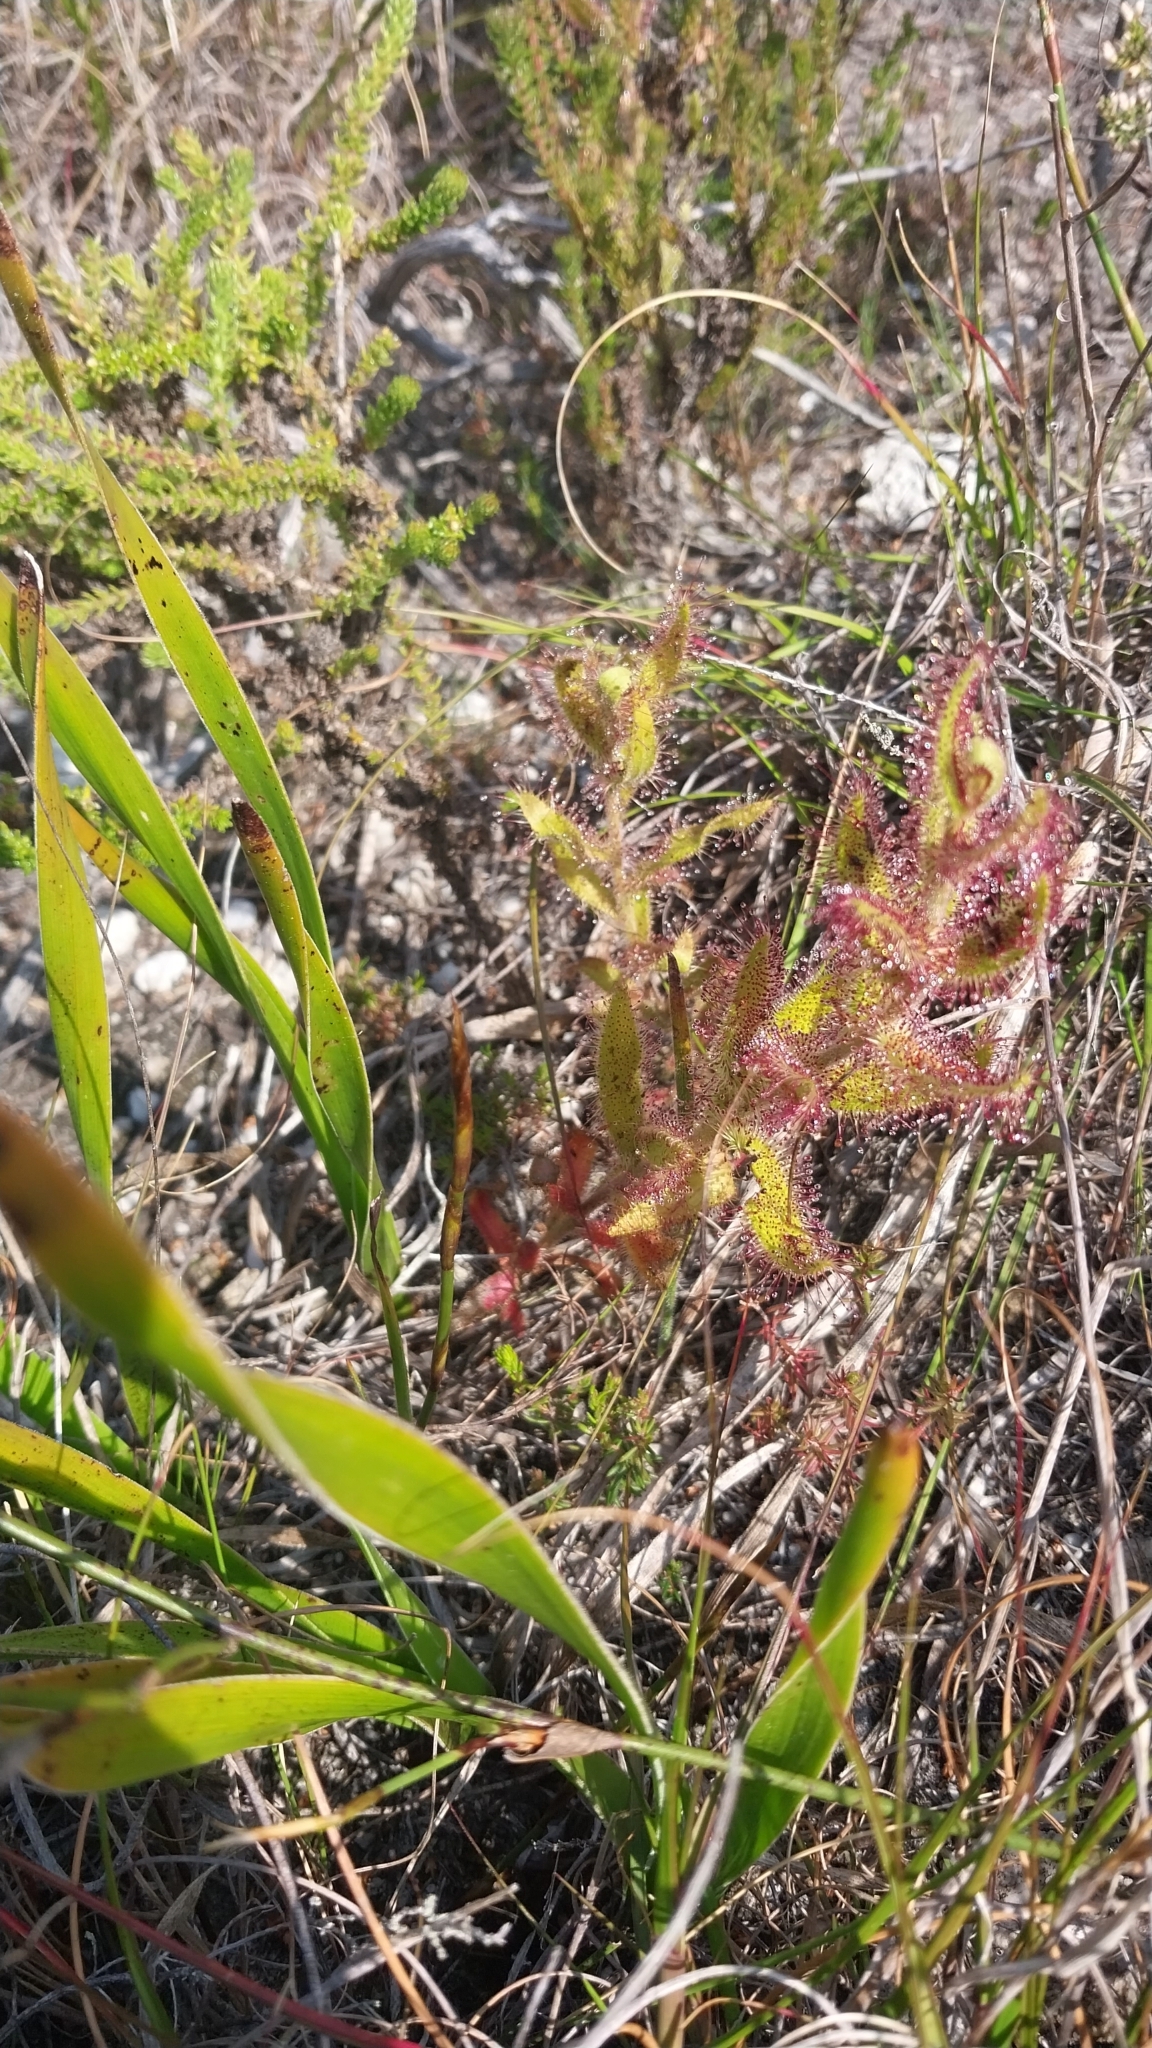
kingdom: Plantae
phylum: Tracheophyta
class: Magnoliopsida
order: Caryophyllales
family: Droseraceae
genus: Drosera
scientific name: Drosera cistiflora
